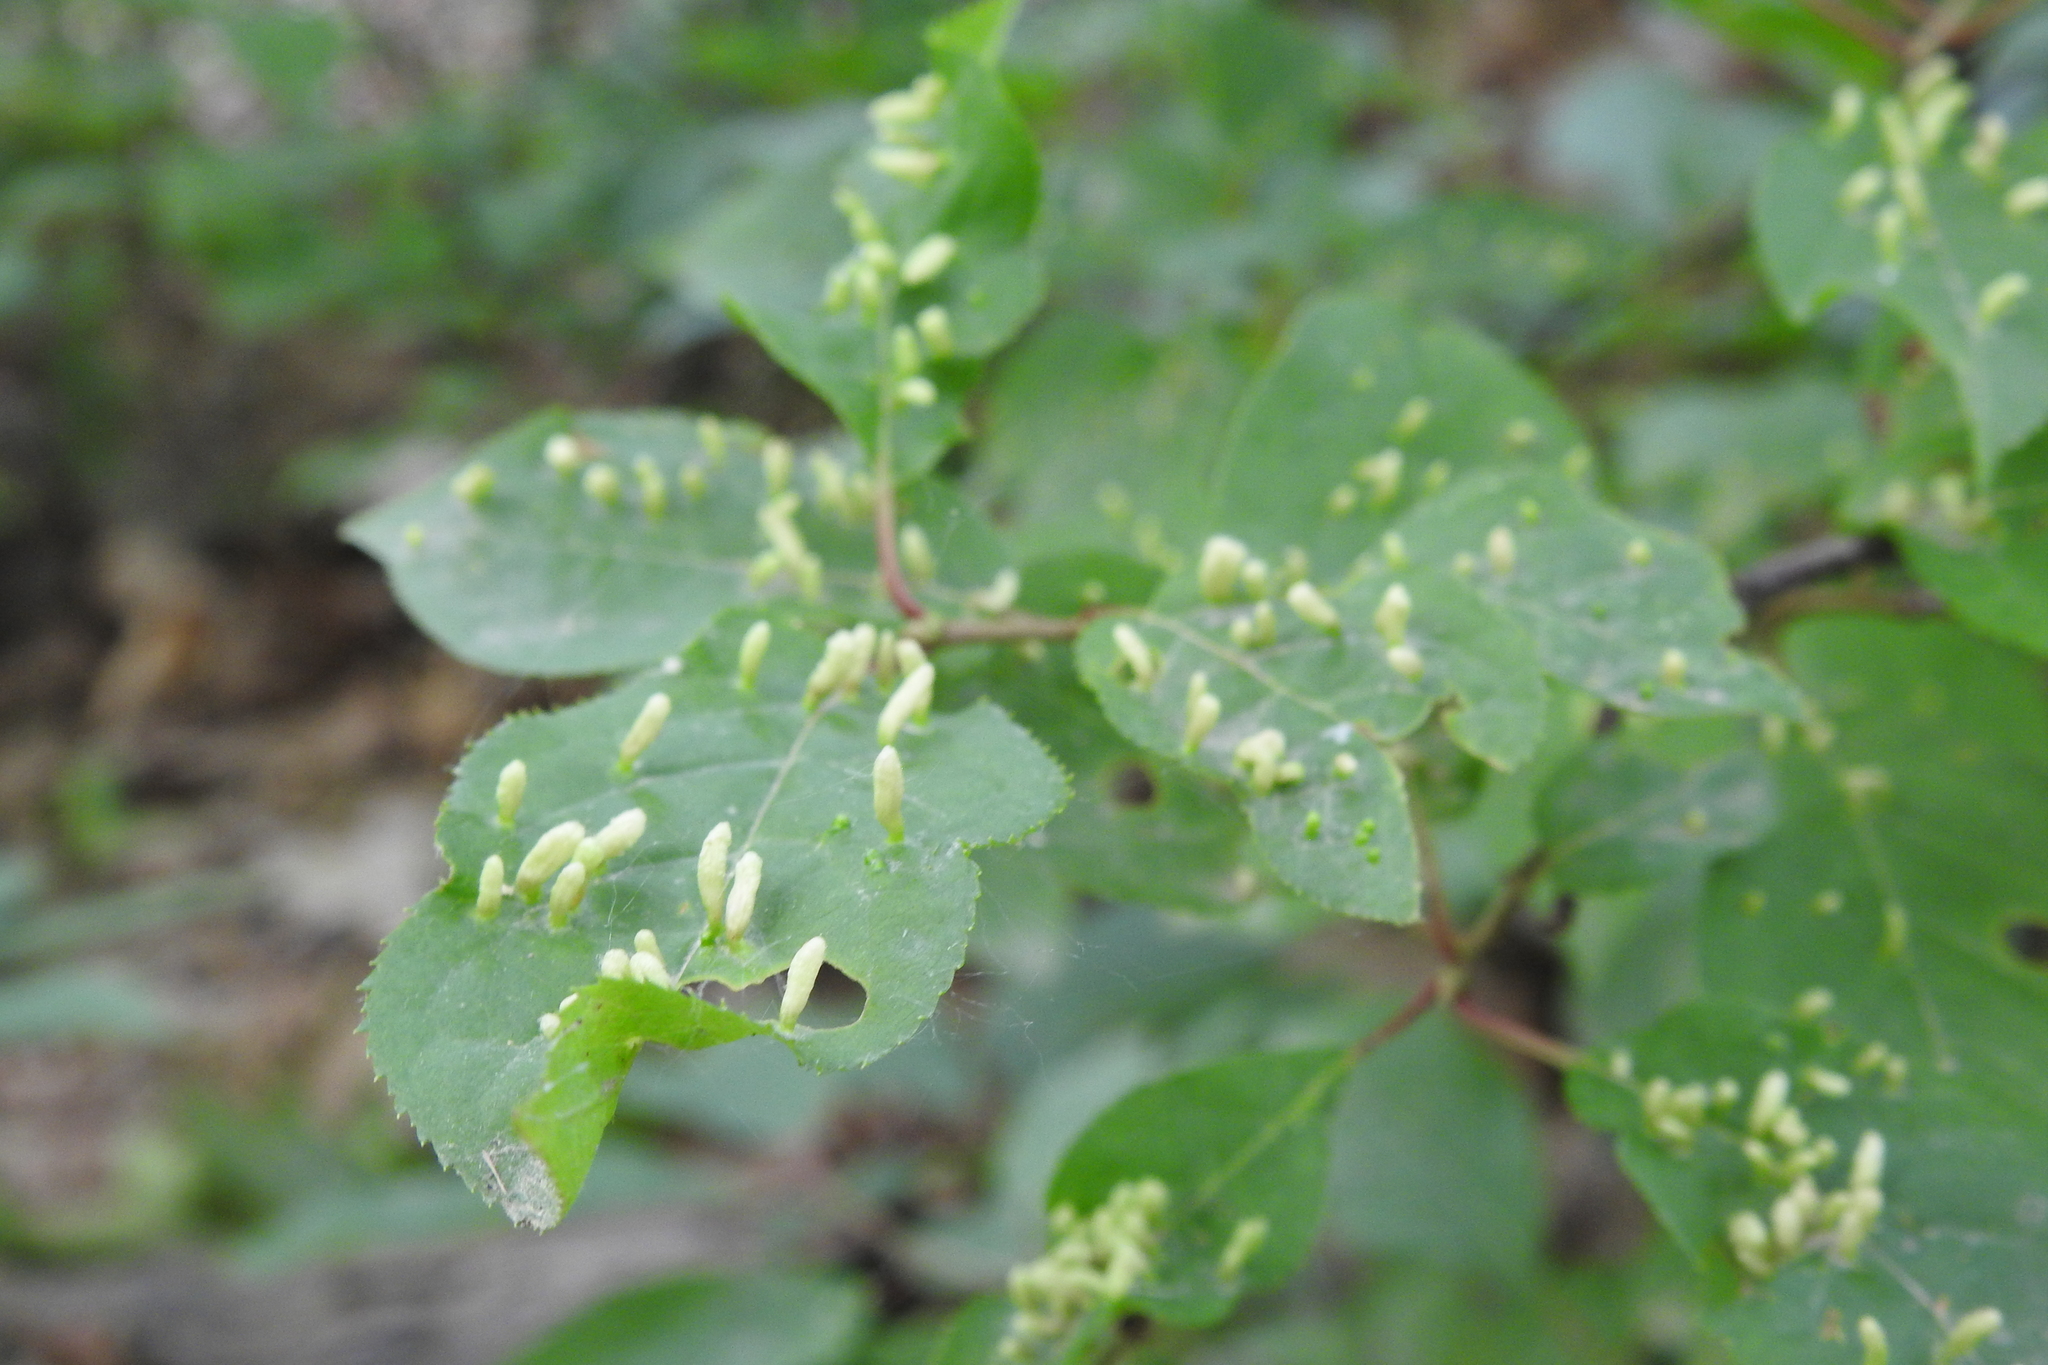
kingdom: Animalia
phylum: Arthropoda
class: Arachnida
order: Trombidiformes
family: Eriophyidae
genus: Eriophyes
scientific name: Eriophyes emarginatae
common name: Plum leaf gall mite
